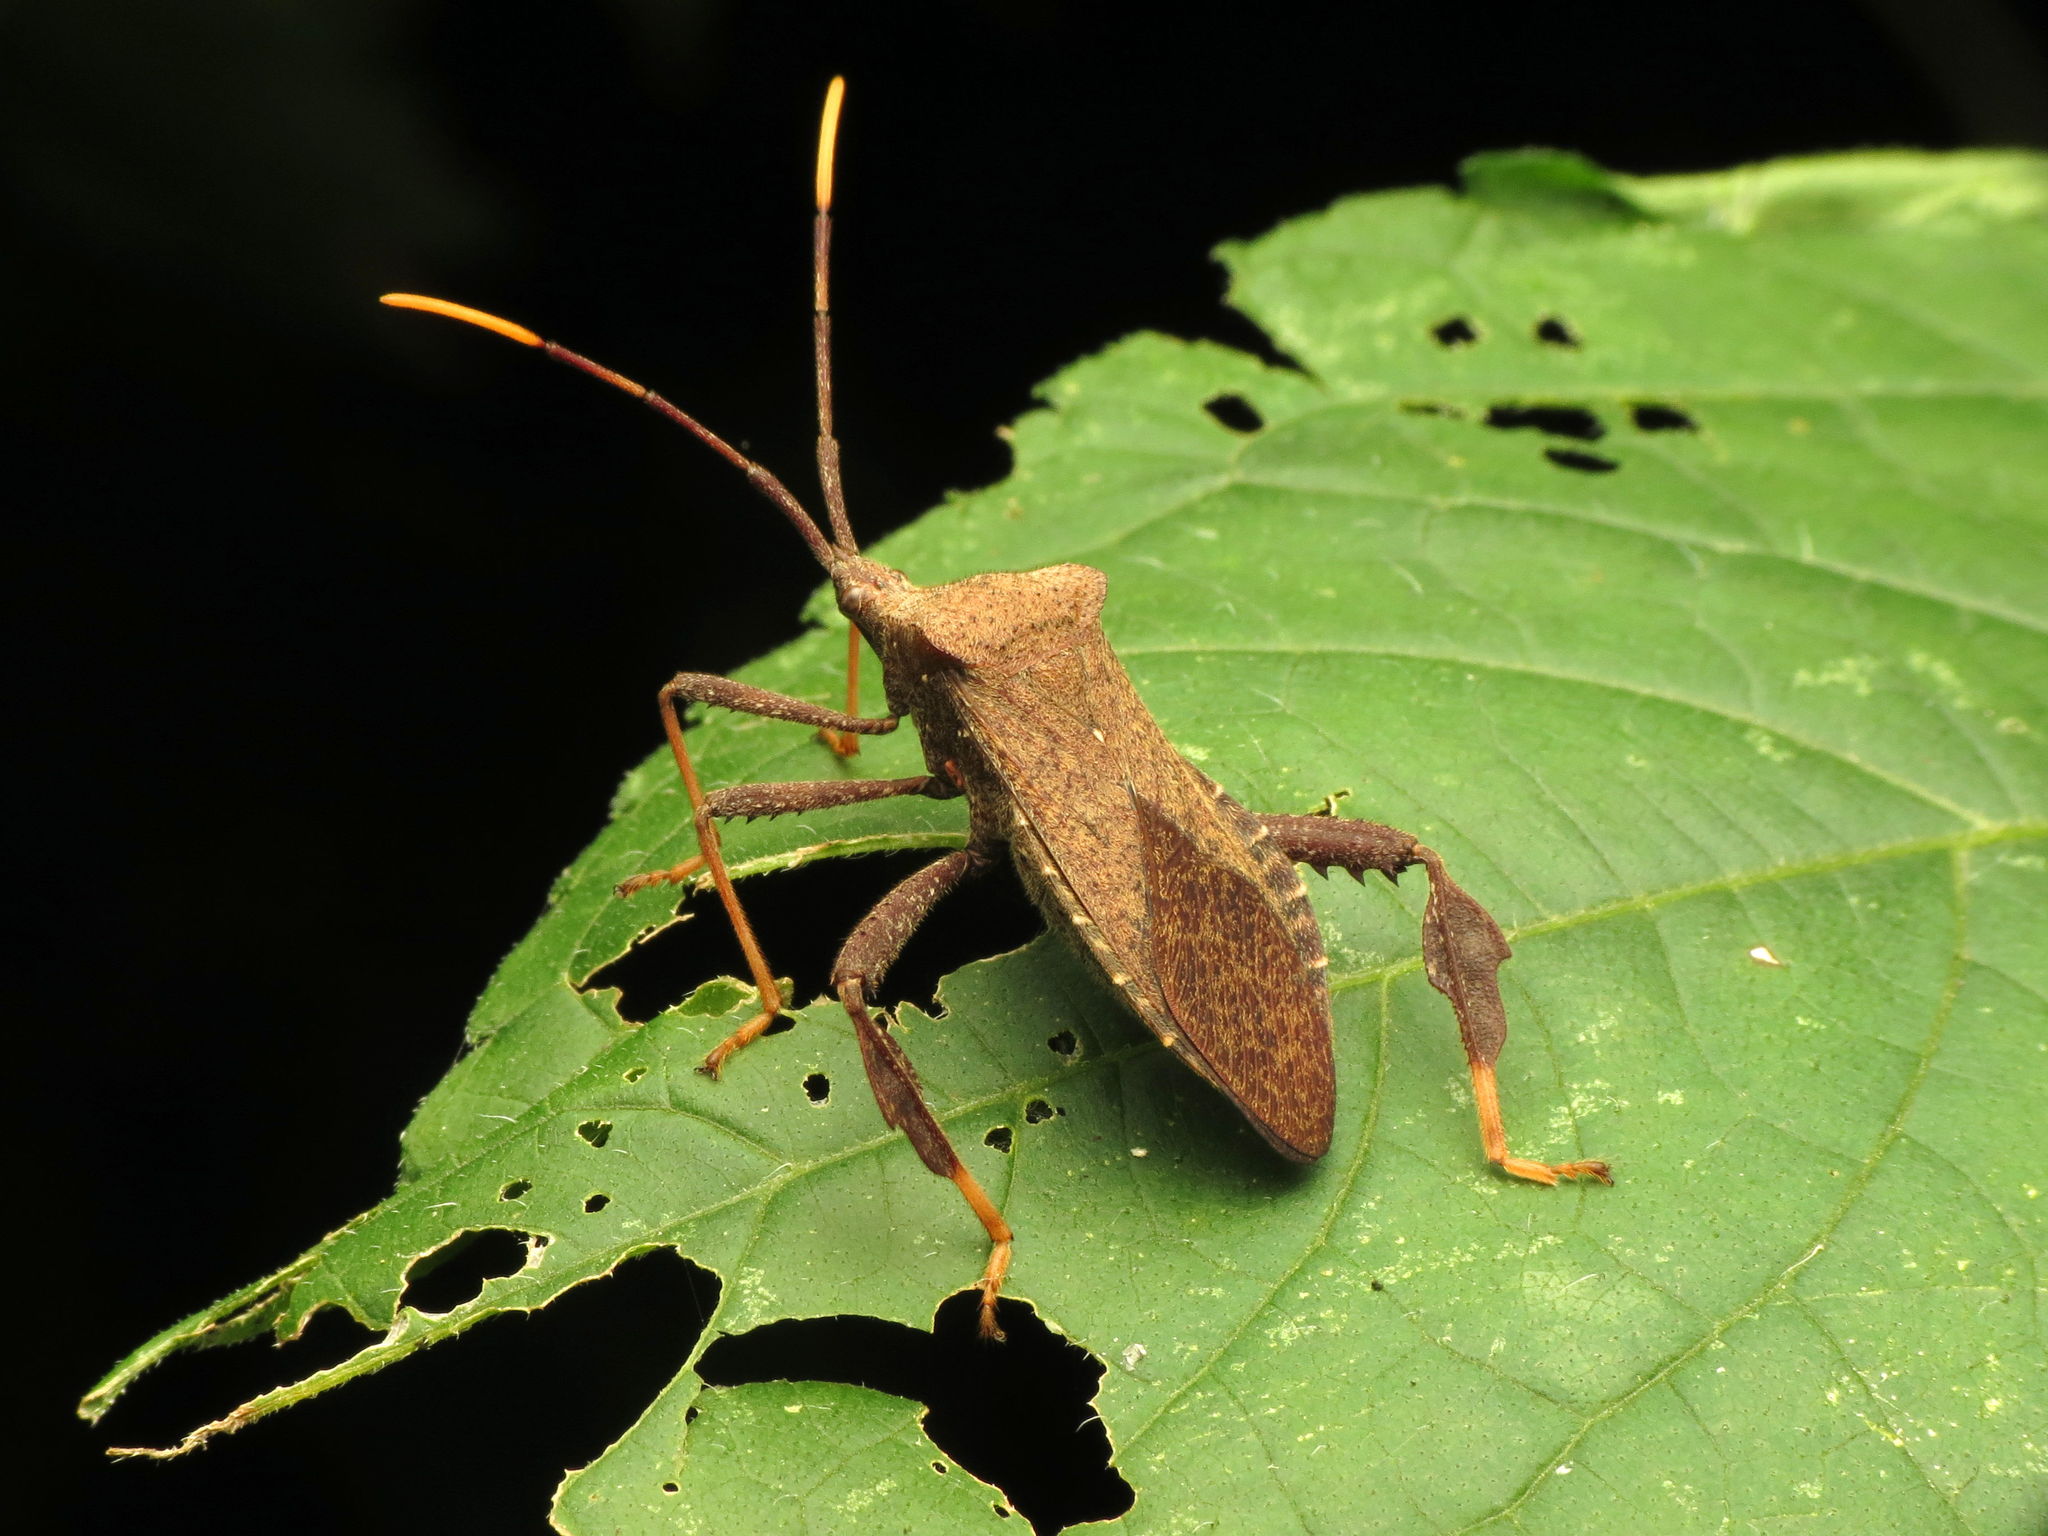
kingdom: Animalia
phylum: Arthropoda
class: Insecta
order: Hemiptera
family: Coreidae
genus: Acanthocephala
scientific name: Acanthocephala terminalis
